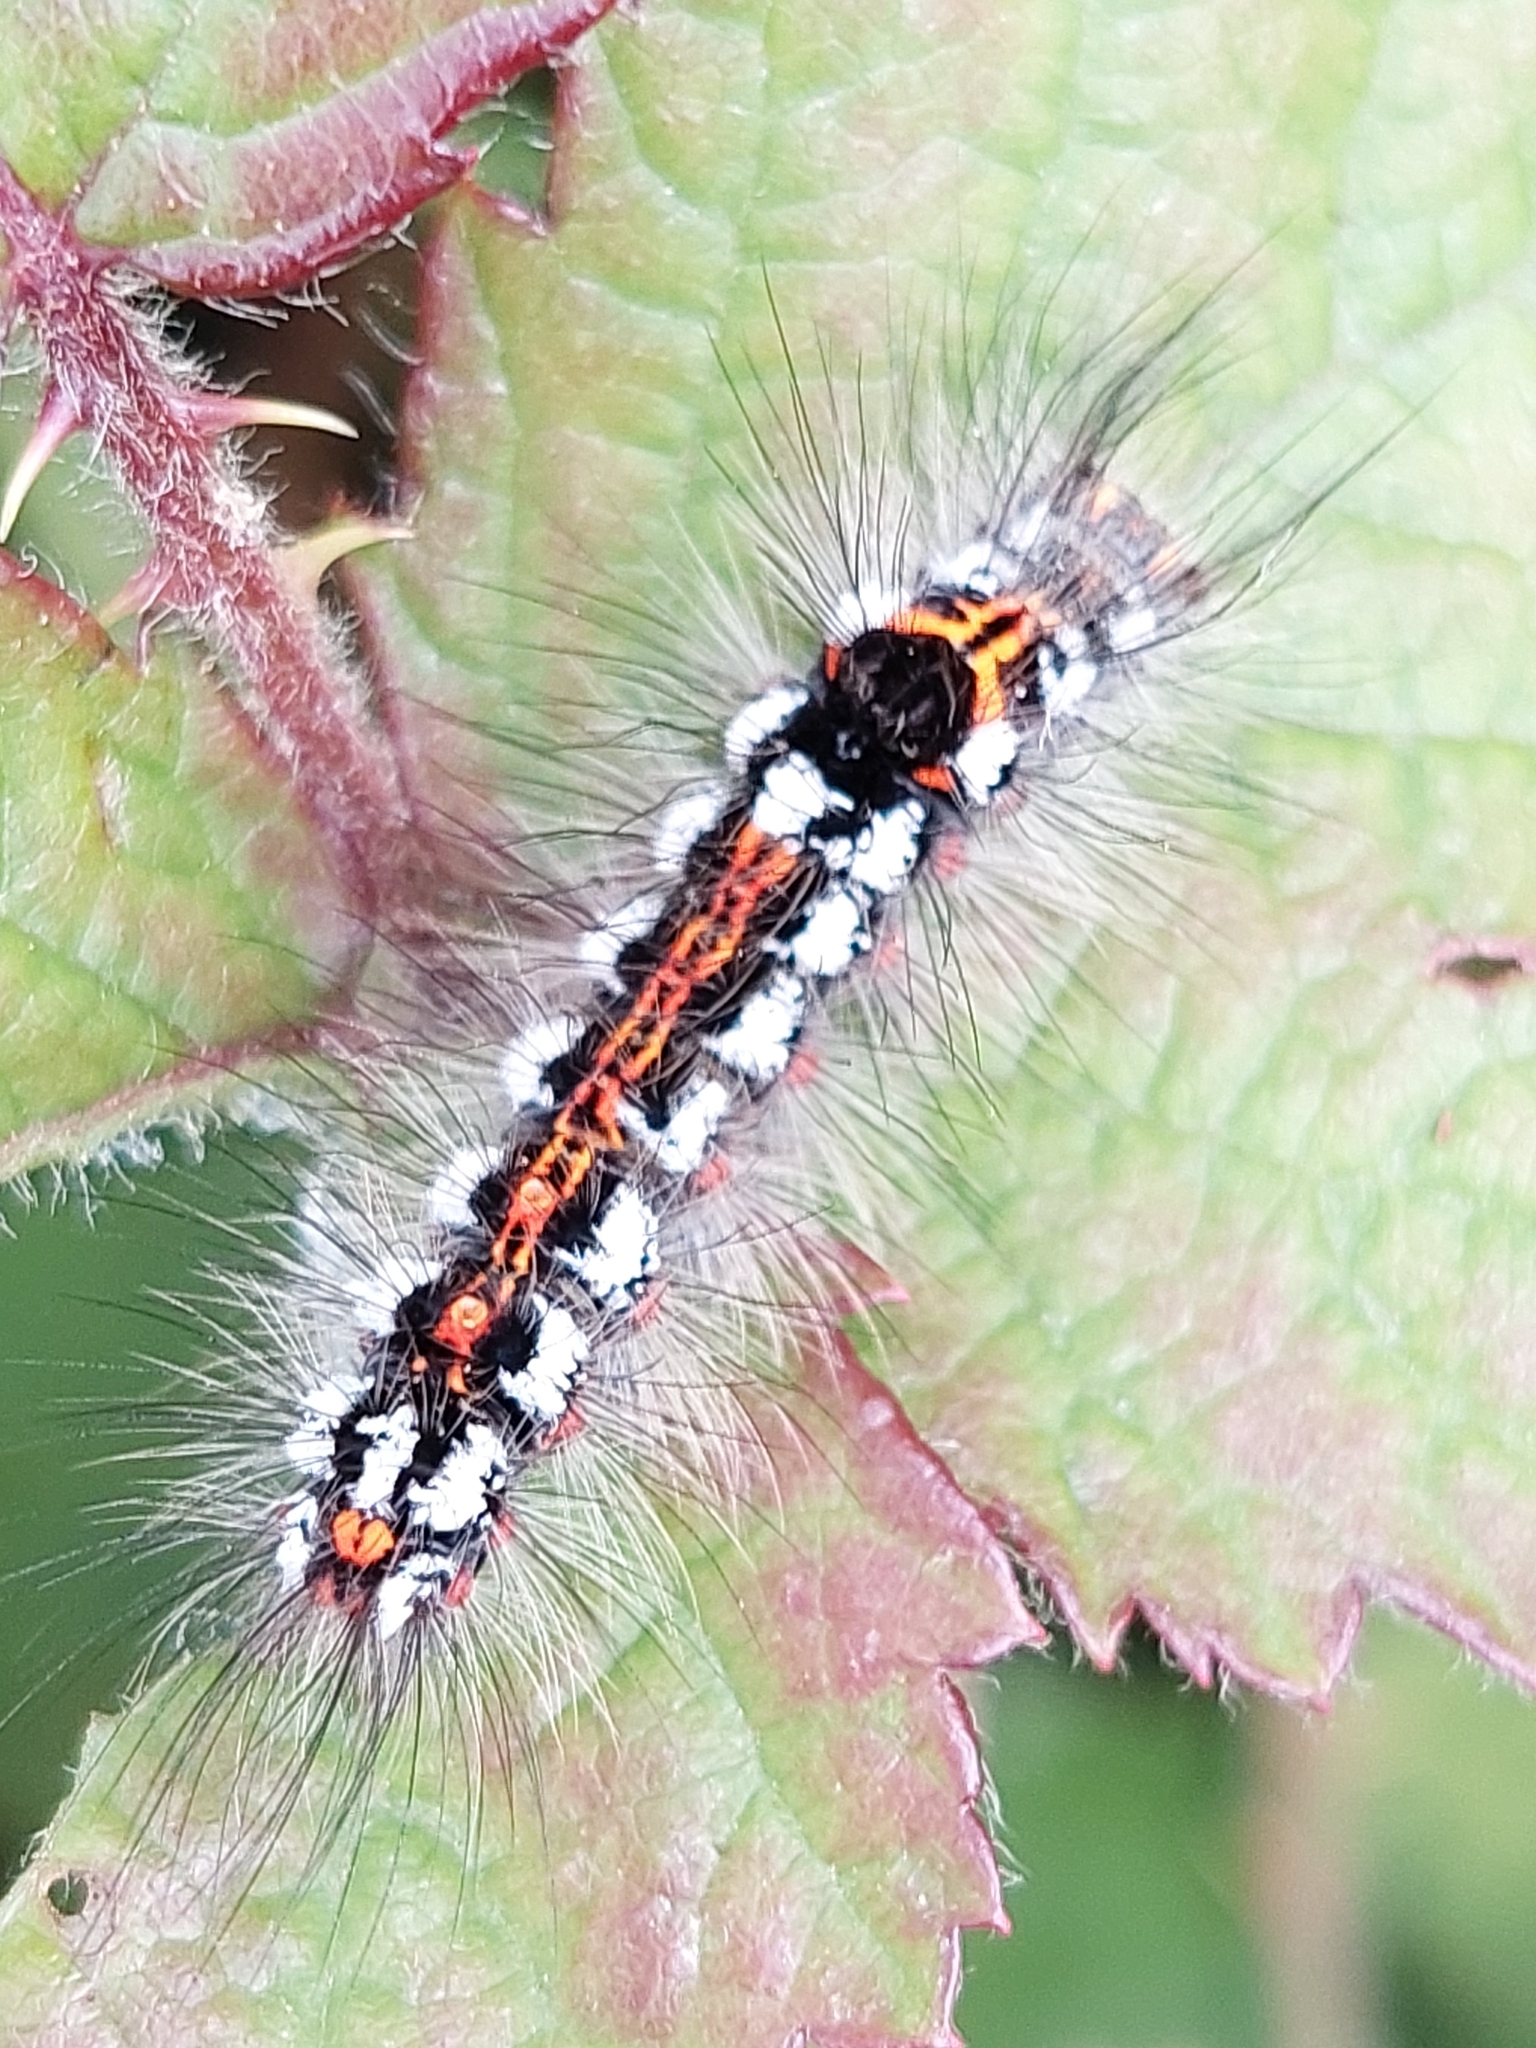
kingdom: Animalia
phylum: Arthropoda
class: Insecta
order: Lepidoptera
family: Erebidae
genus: Sphrageidus
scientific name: Sphrageidus similis
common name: Yellow-tail
